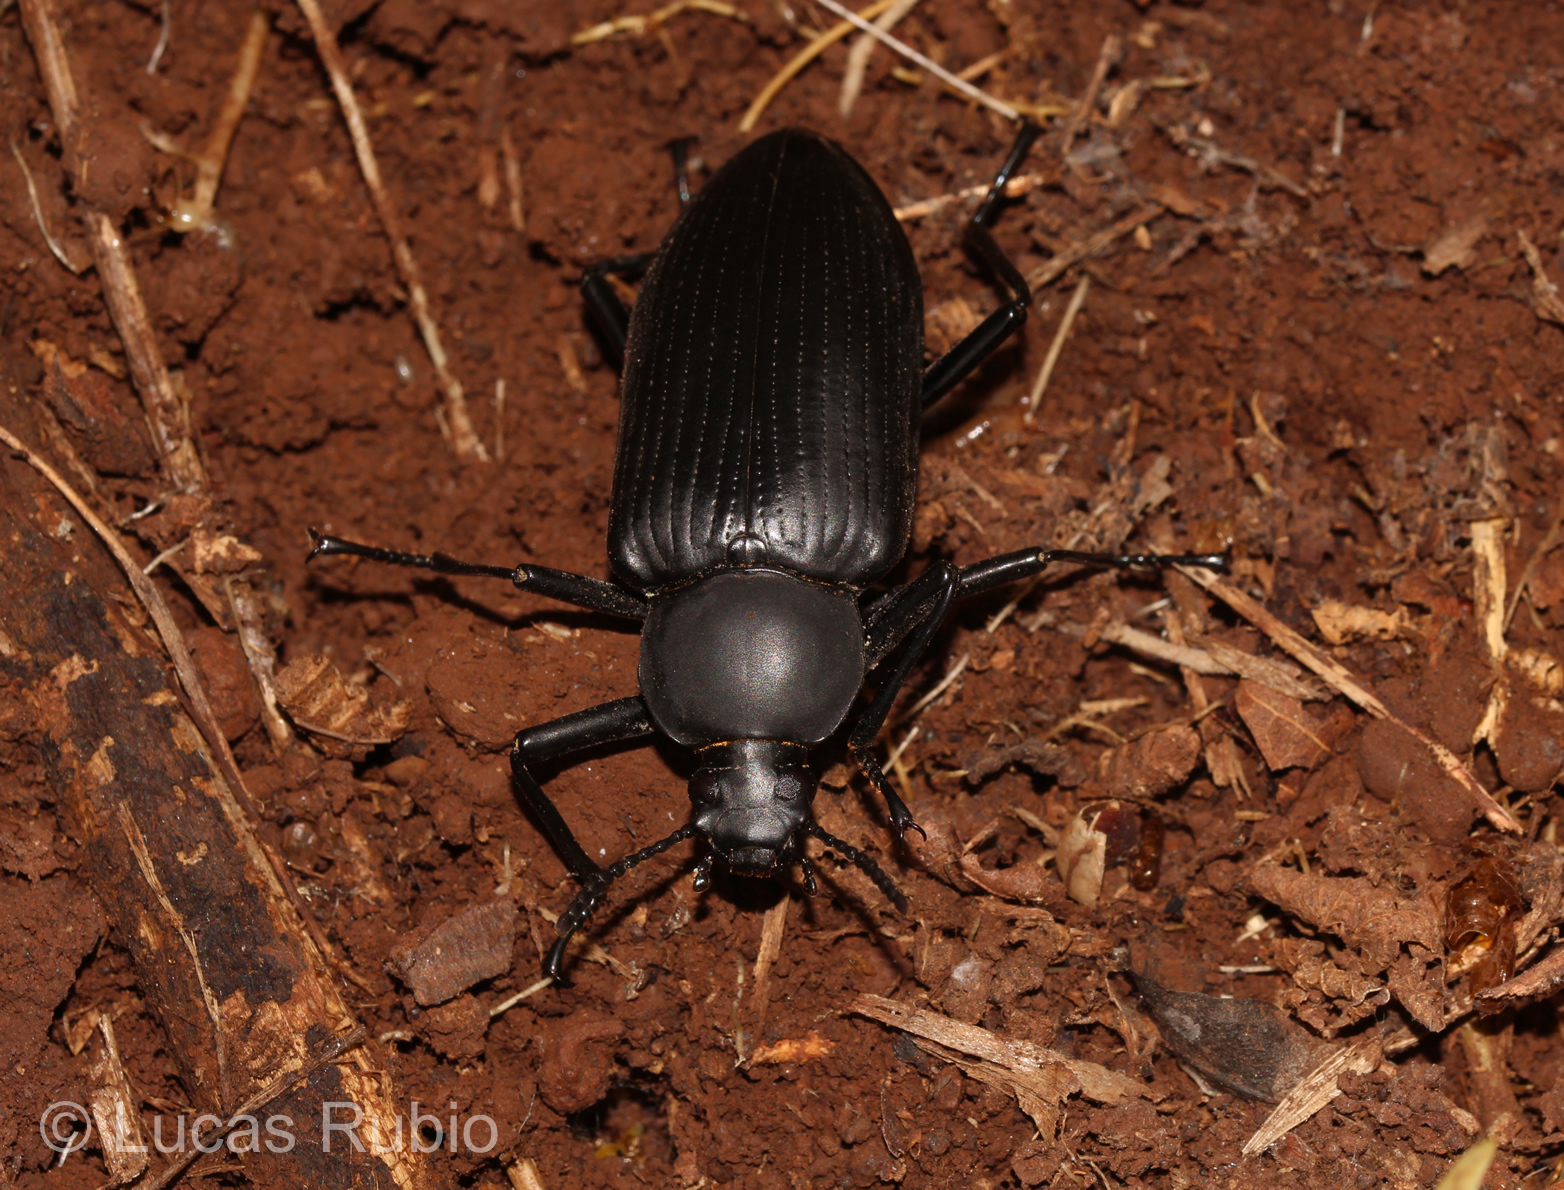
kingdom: Animalia
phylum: Arthropoda
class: Insecta
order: Coleoptera
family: Tenebrionidae
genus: Mylaris
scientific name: Mylaris
